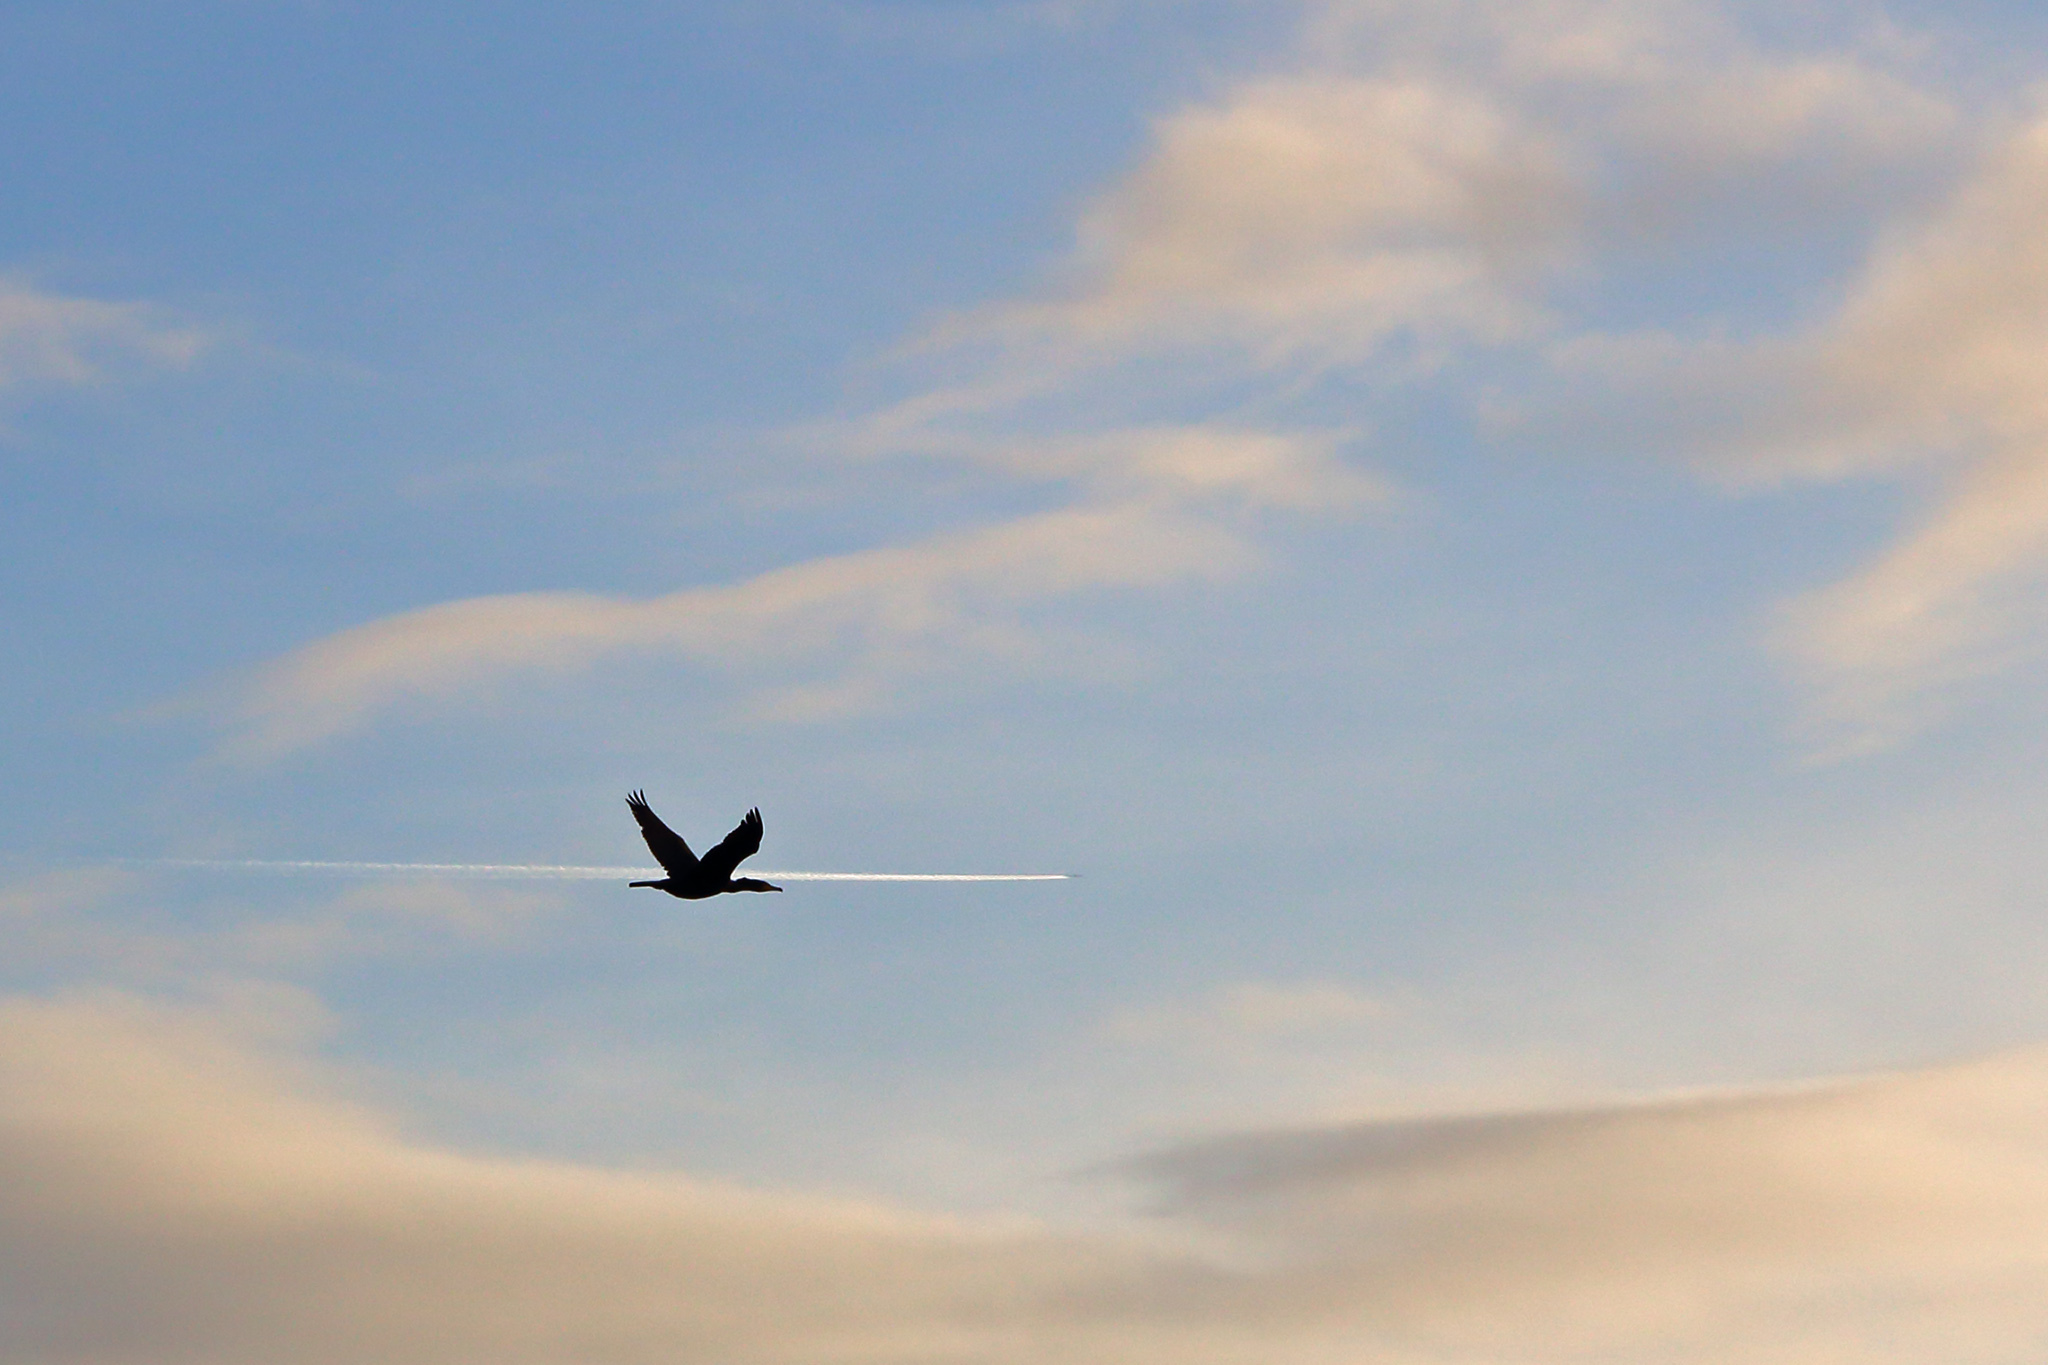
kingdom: Animalia
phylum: Chordata
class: Aves
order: Suliformes
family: Phalacrocoracidae
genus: Phalacrocorax
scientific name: Phalacrocorax carbo
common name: Great cormorant
